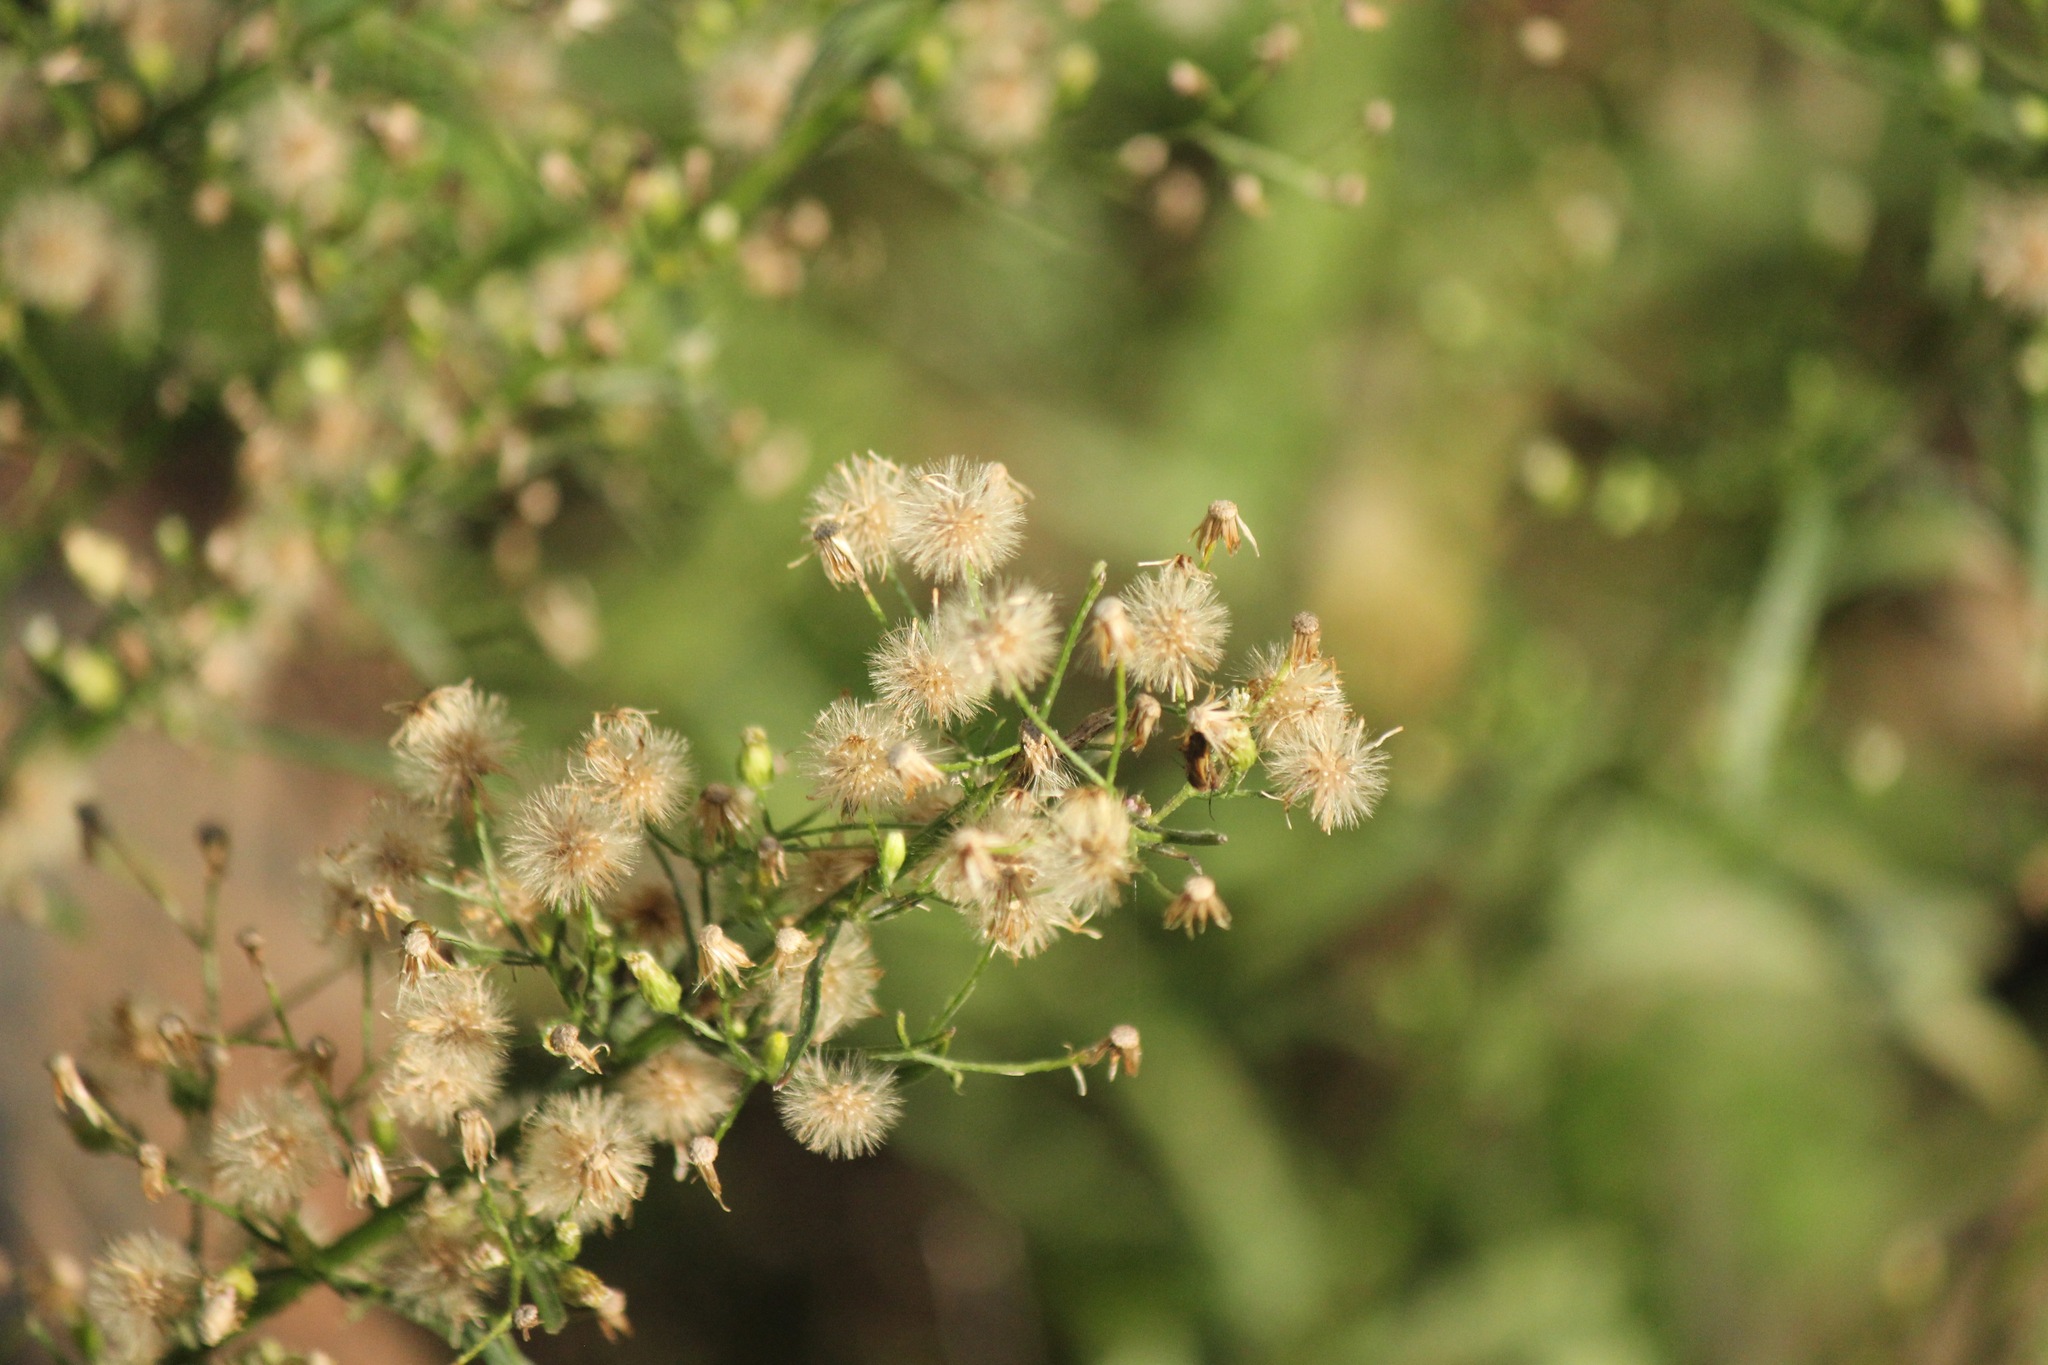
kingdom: Plantae
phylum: Tracheophyta
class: Magnoliopsida
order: Asterales
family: Asteraceae
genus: Erigeron
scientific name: Erigeron canadensis
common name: Canadian fleabane
